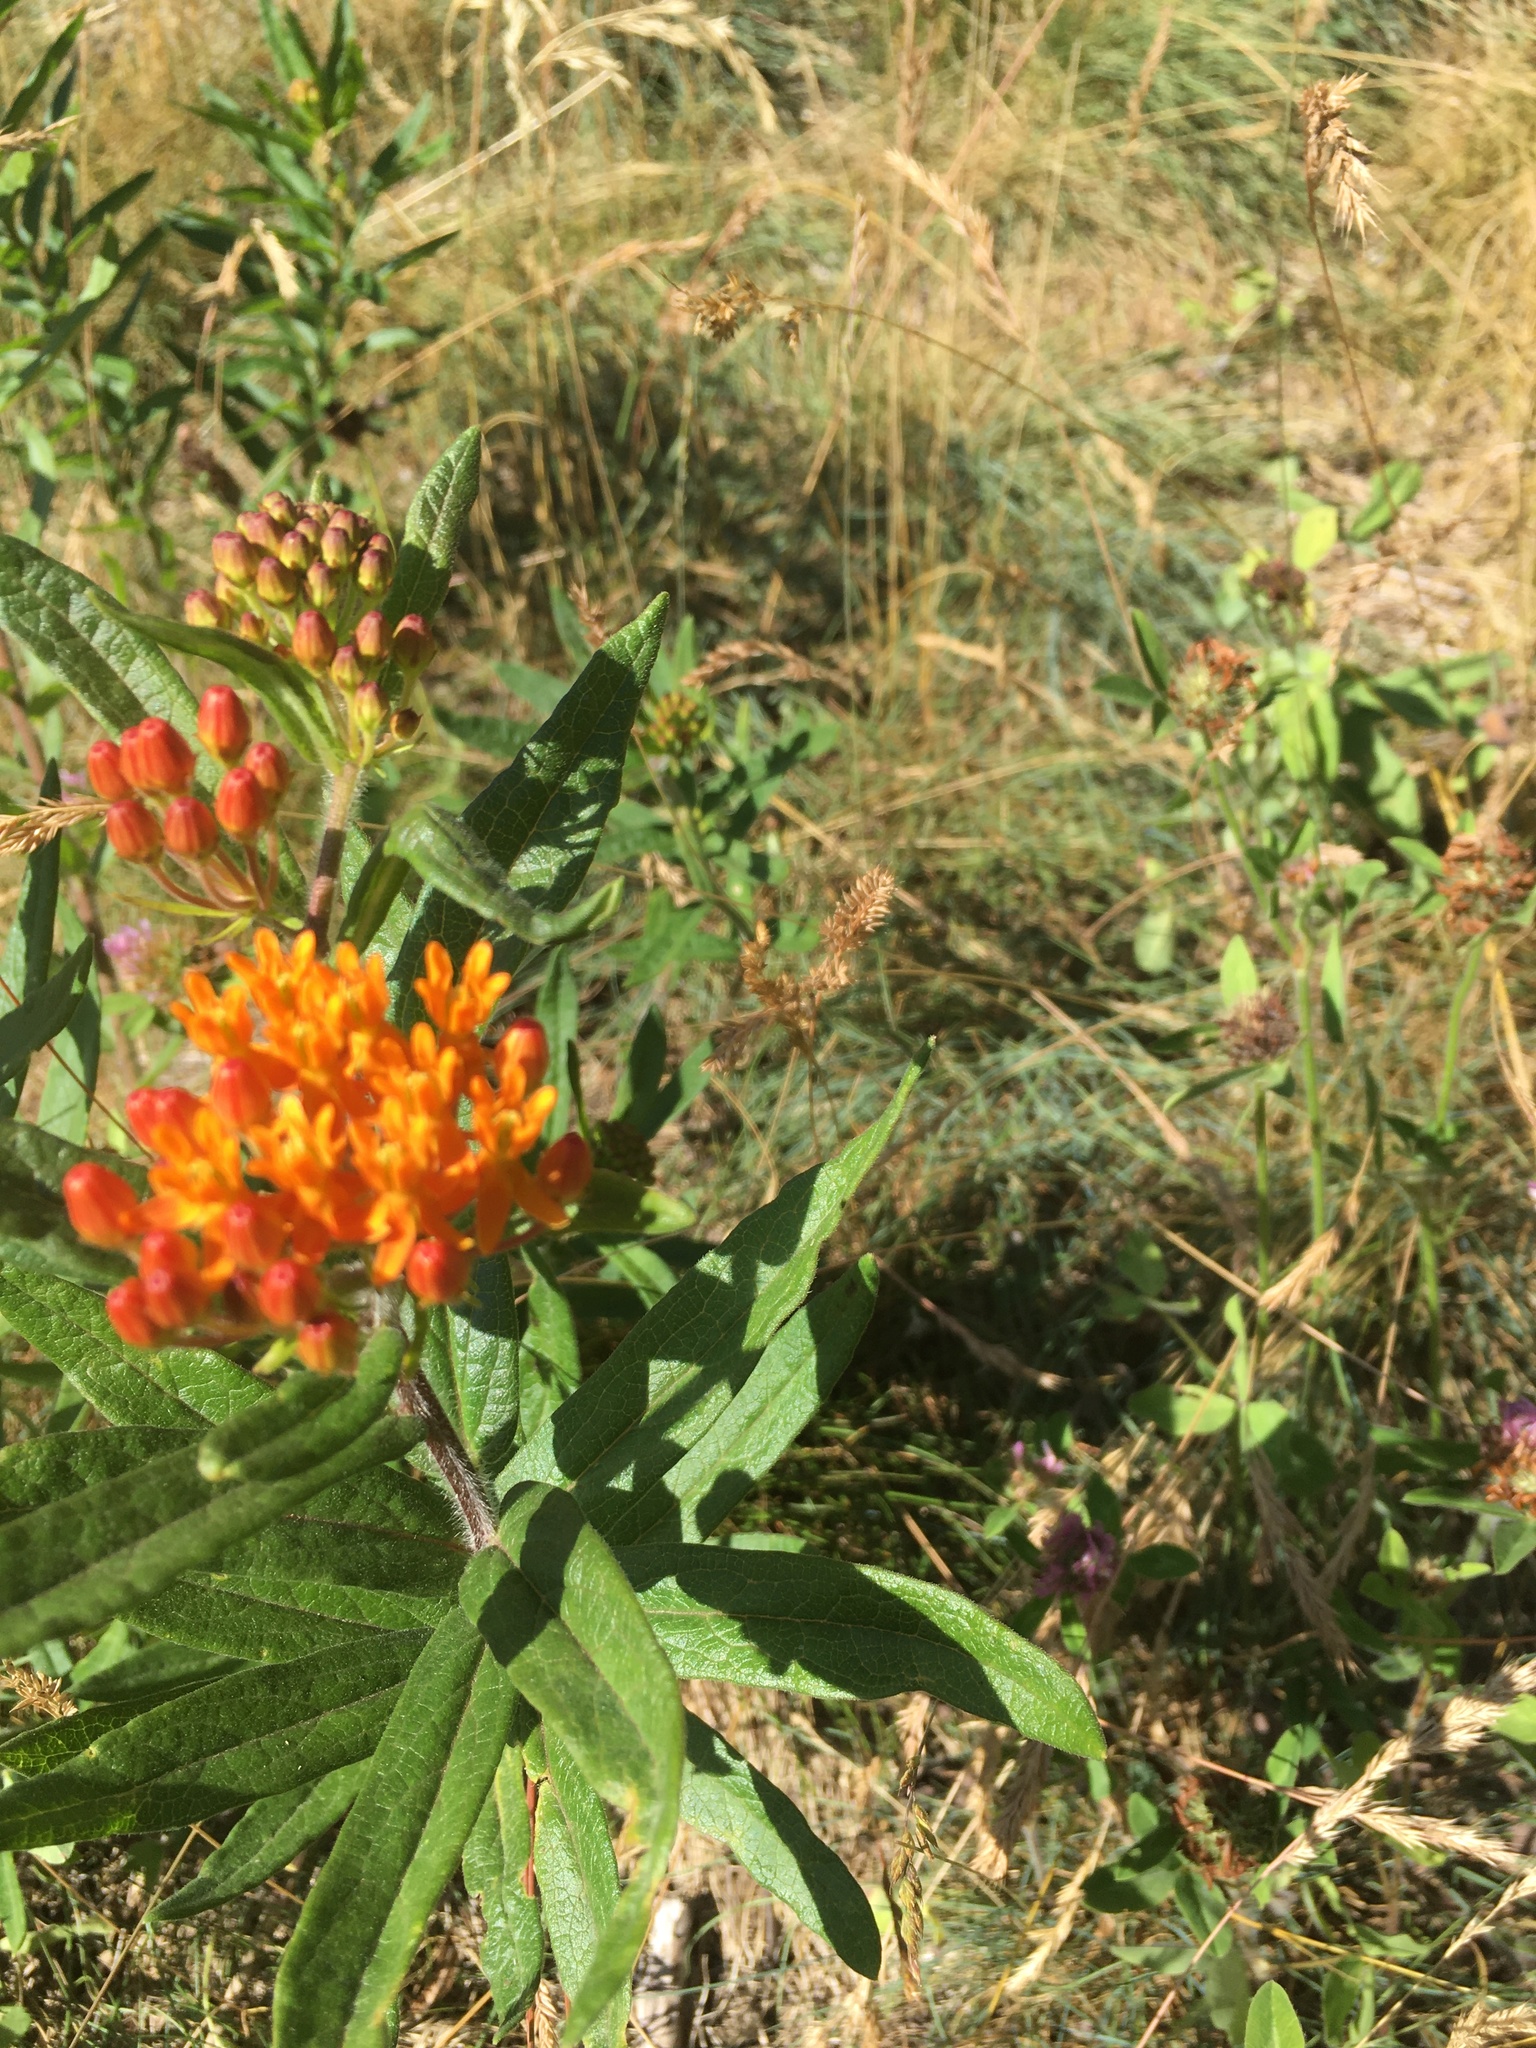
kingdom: Plantae
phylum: Tracheophyta
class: Magnoliopsida
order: Gentianales
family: Apocynaceae
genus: Asclepias
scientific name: Asclepias tuberosa
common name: Butterfly milkweed
